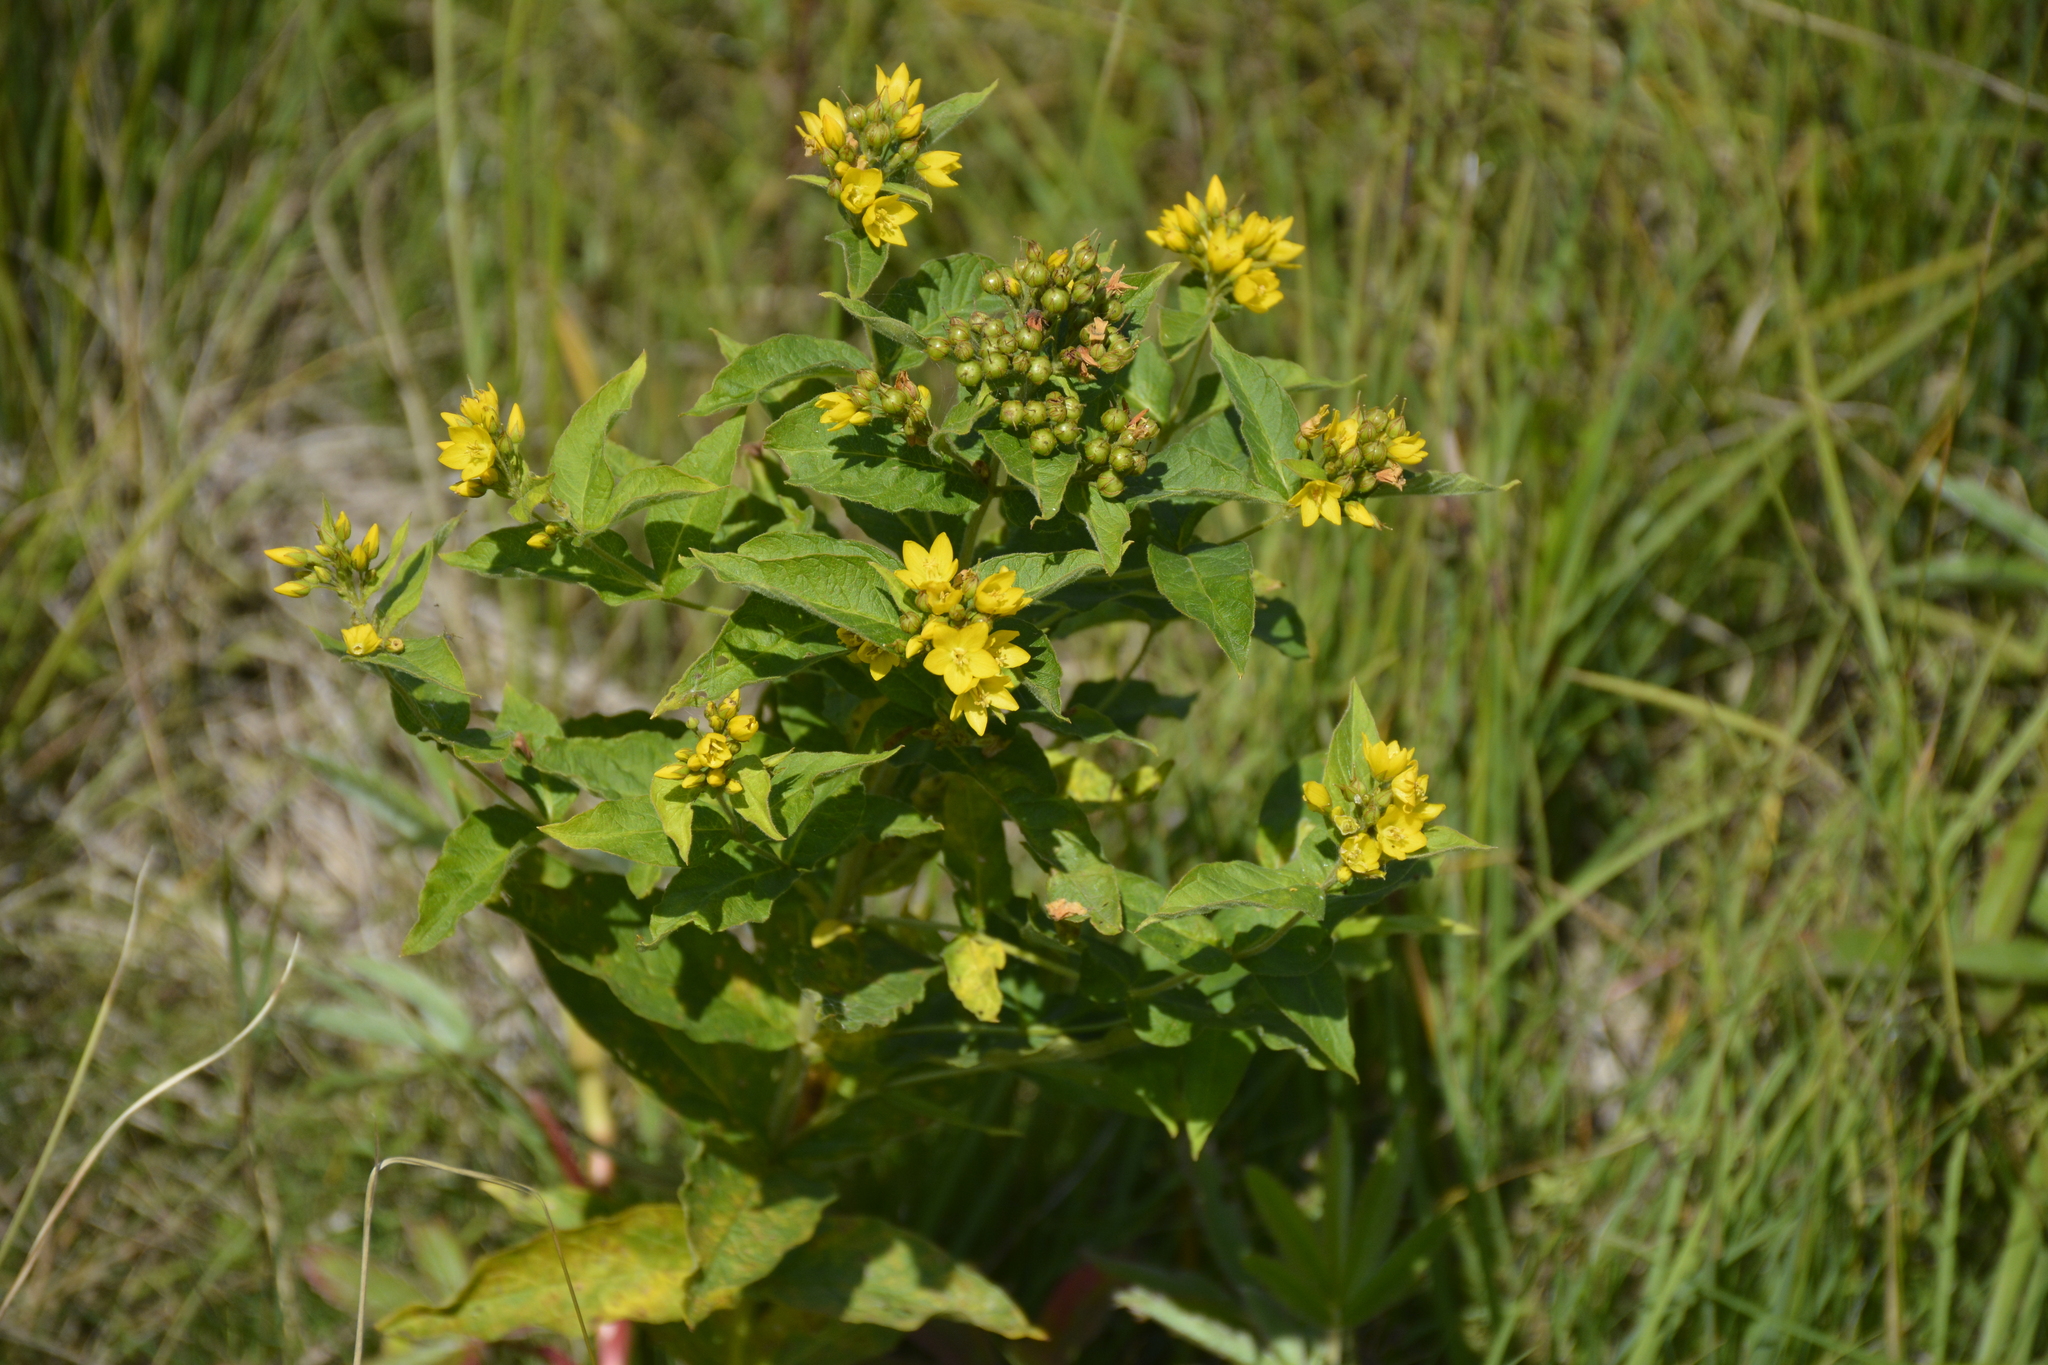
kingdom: Plantae
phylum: Tracheophyta
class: Magnoliopsida
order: Ericales
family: Primulaceae
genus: Lysimachia
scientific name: Lysimachia vulgaris
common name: Yellow loosestrife
